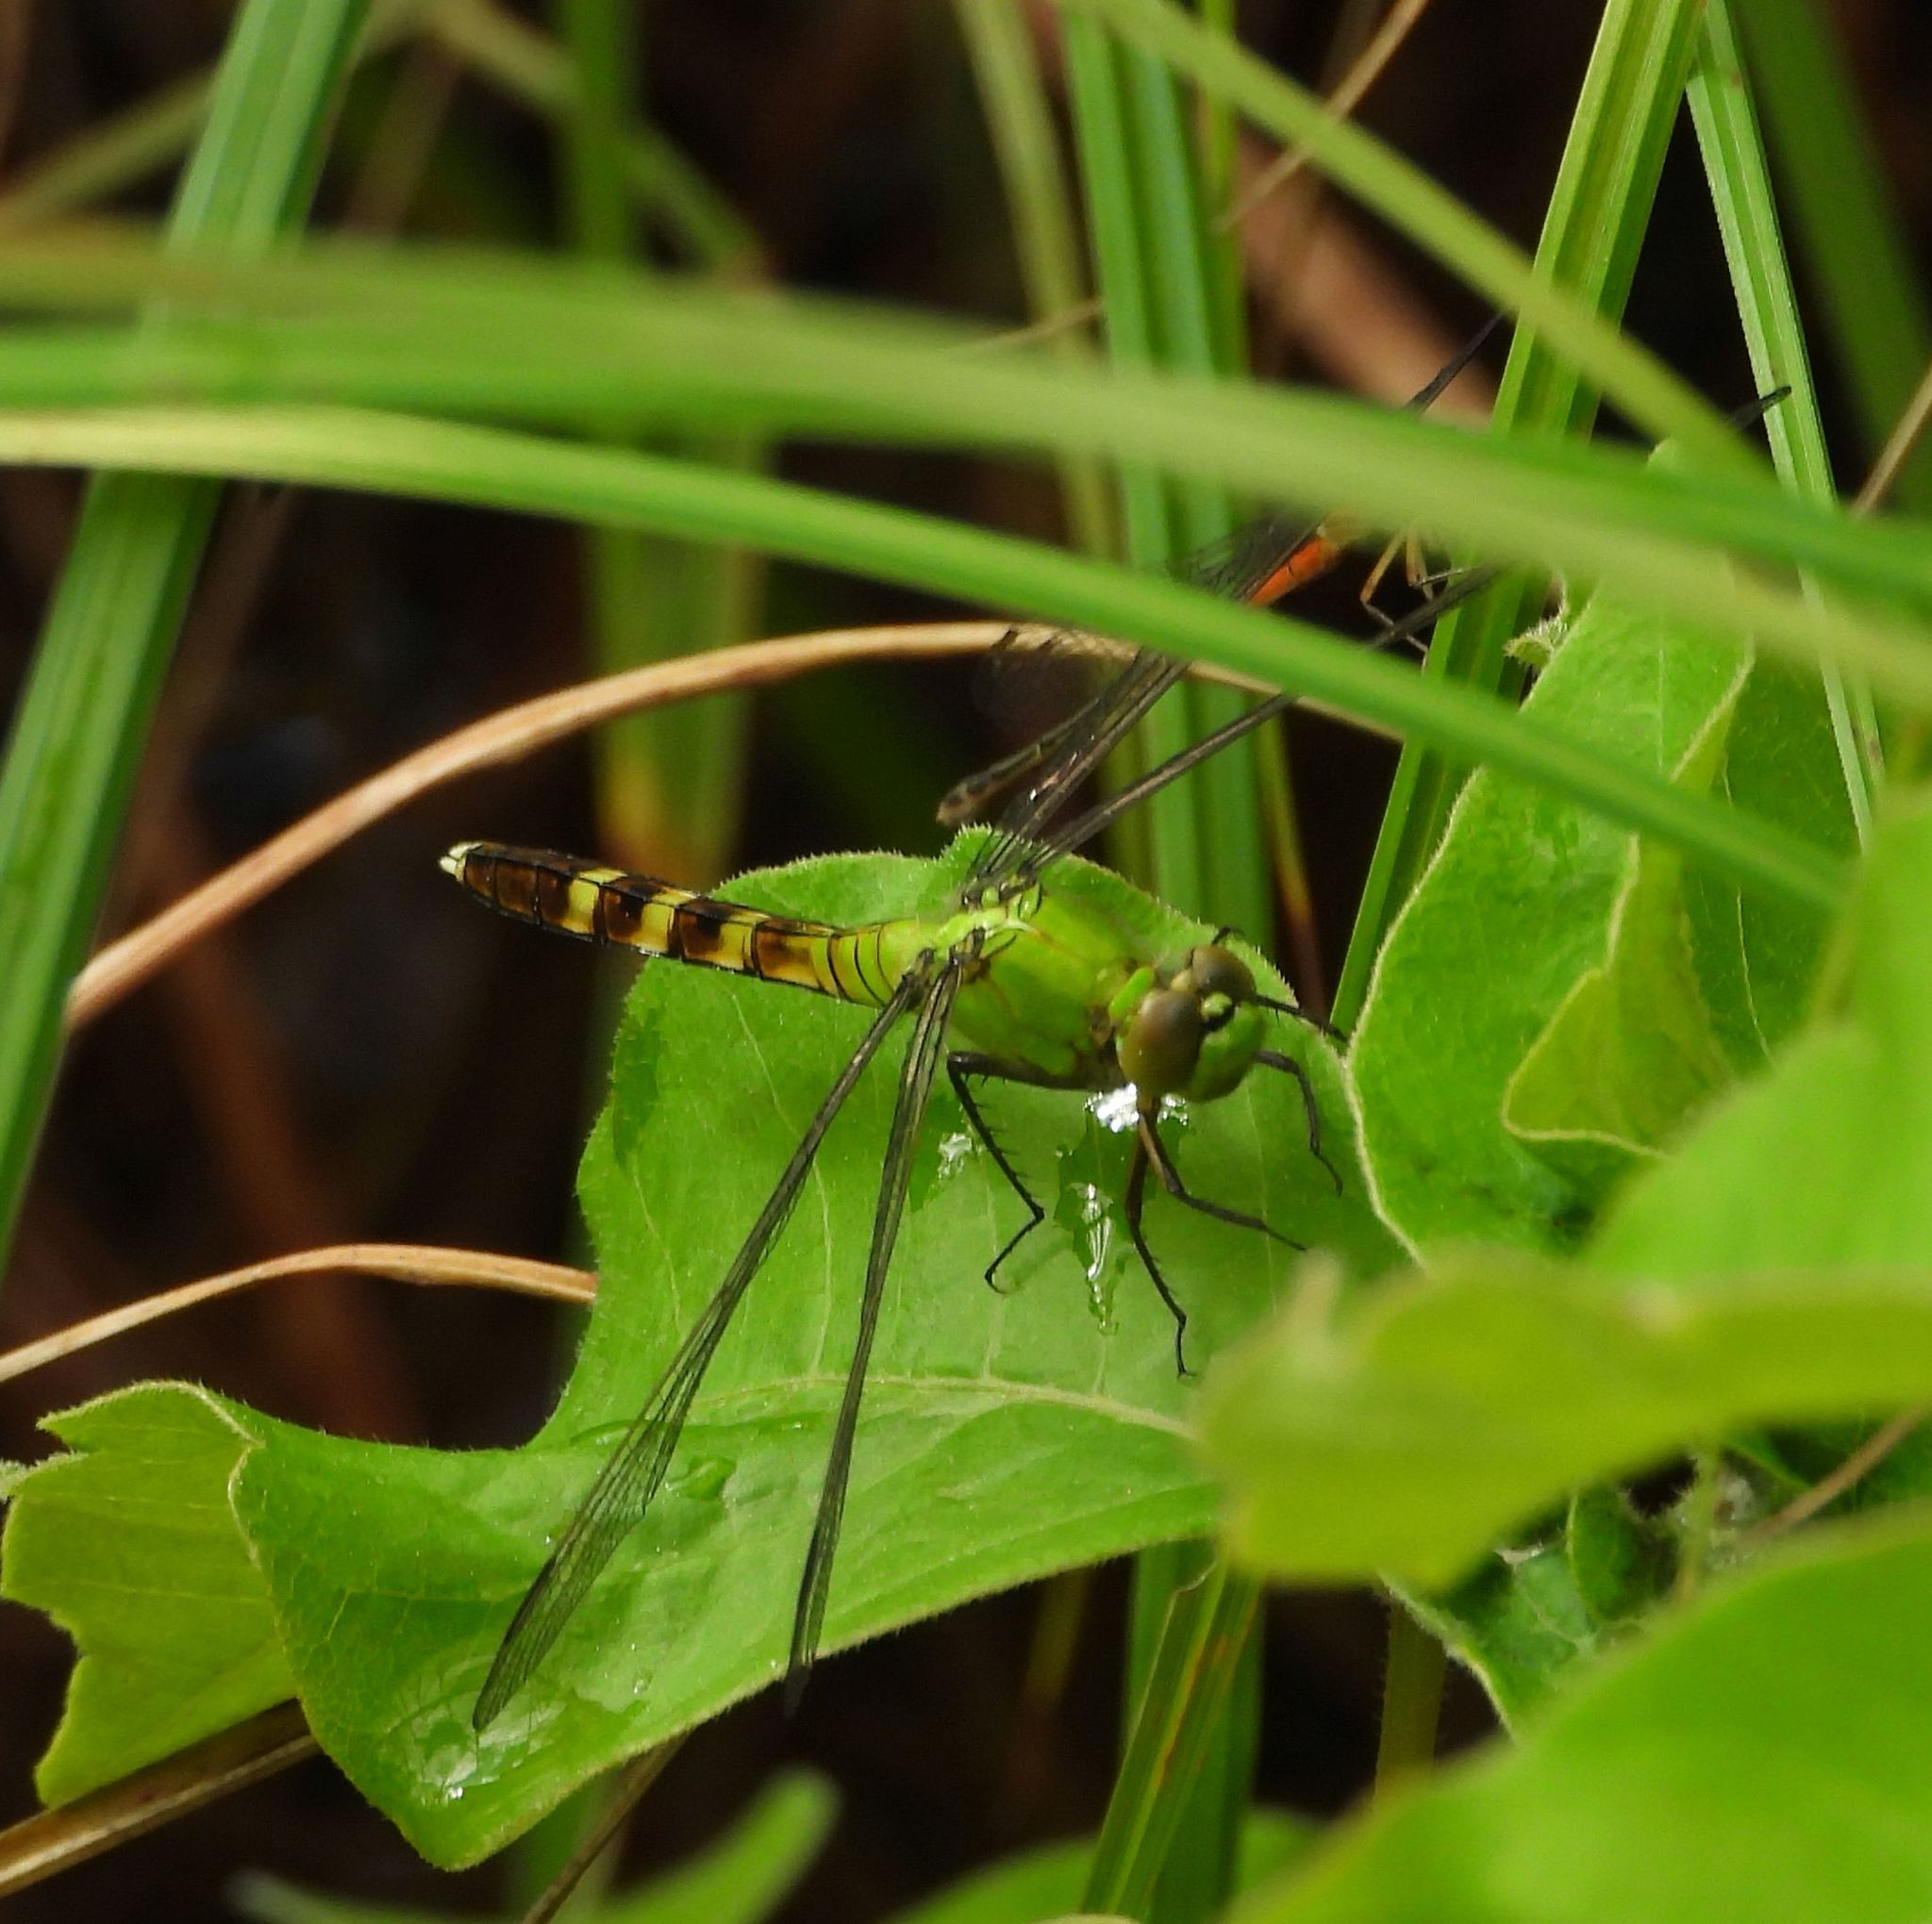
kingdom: Animalia
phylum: Arthropoda
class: Insecta
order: Odonata
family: Libellulidae
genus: Erythemis
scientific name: Erythemis simplicicollis
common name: Eastern pondhawk
